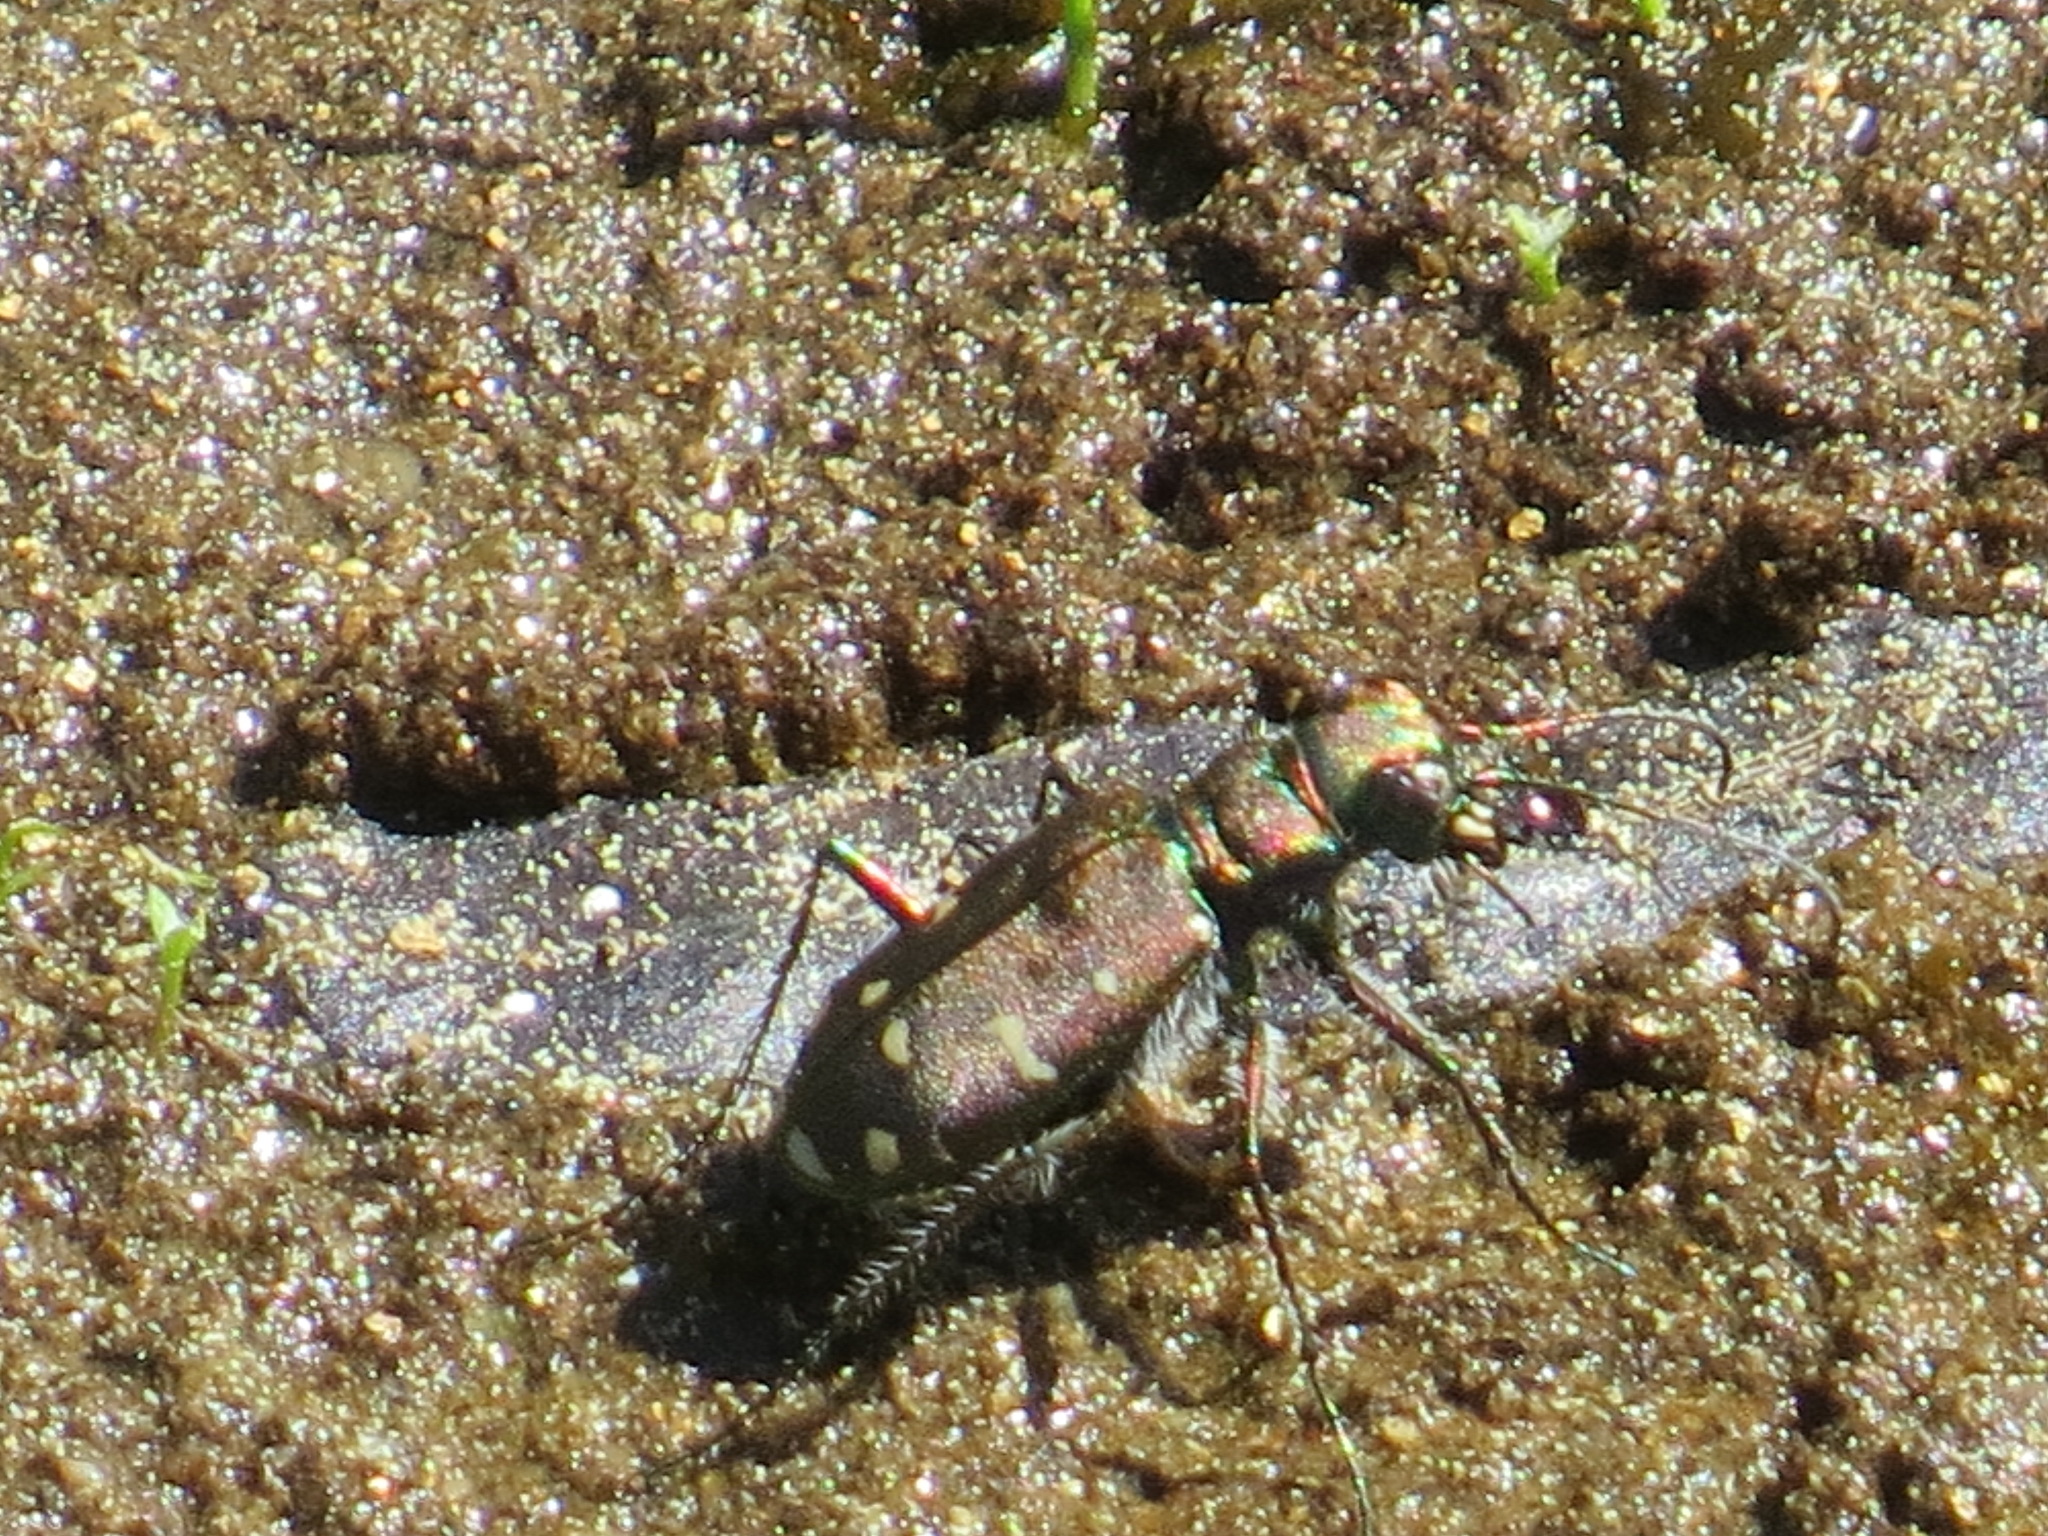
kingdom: Animalia
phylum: Arthropoda
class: Insecta
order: Coleoptera
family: Carabidae
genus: Cicindela
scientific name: Cicindela oregona
